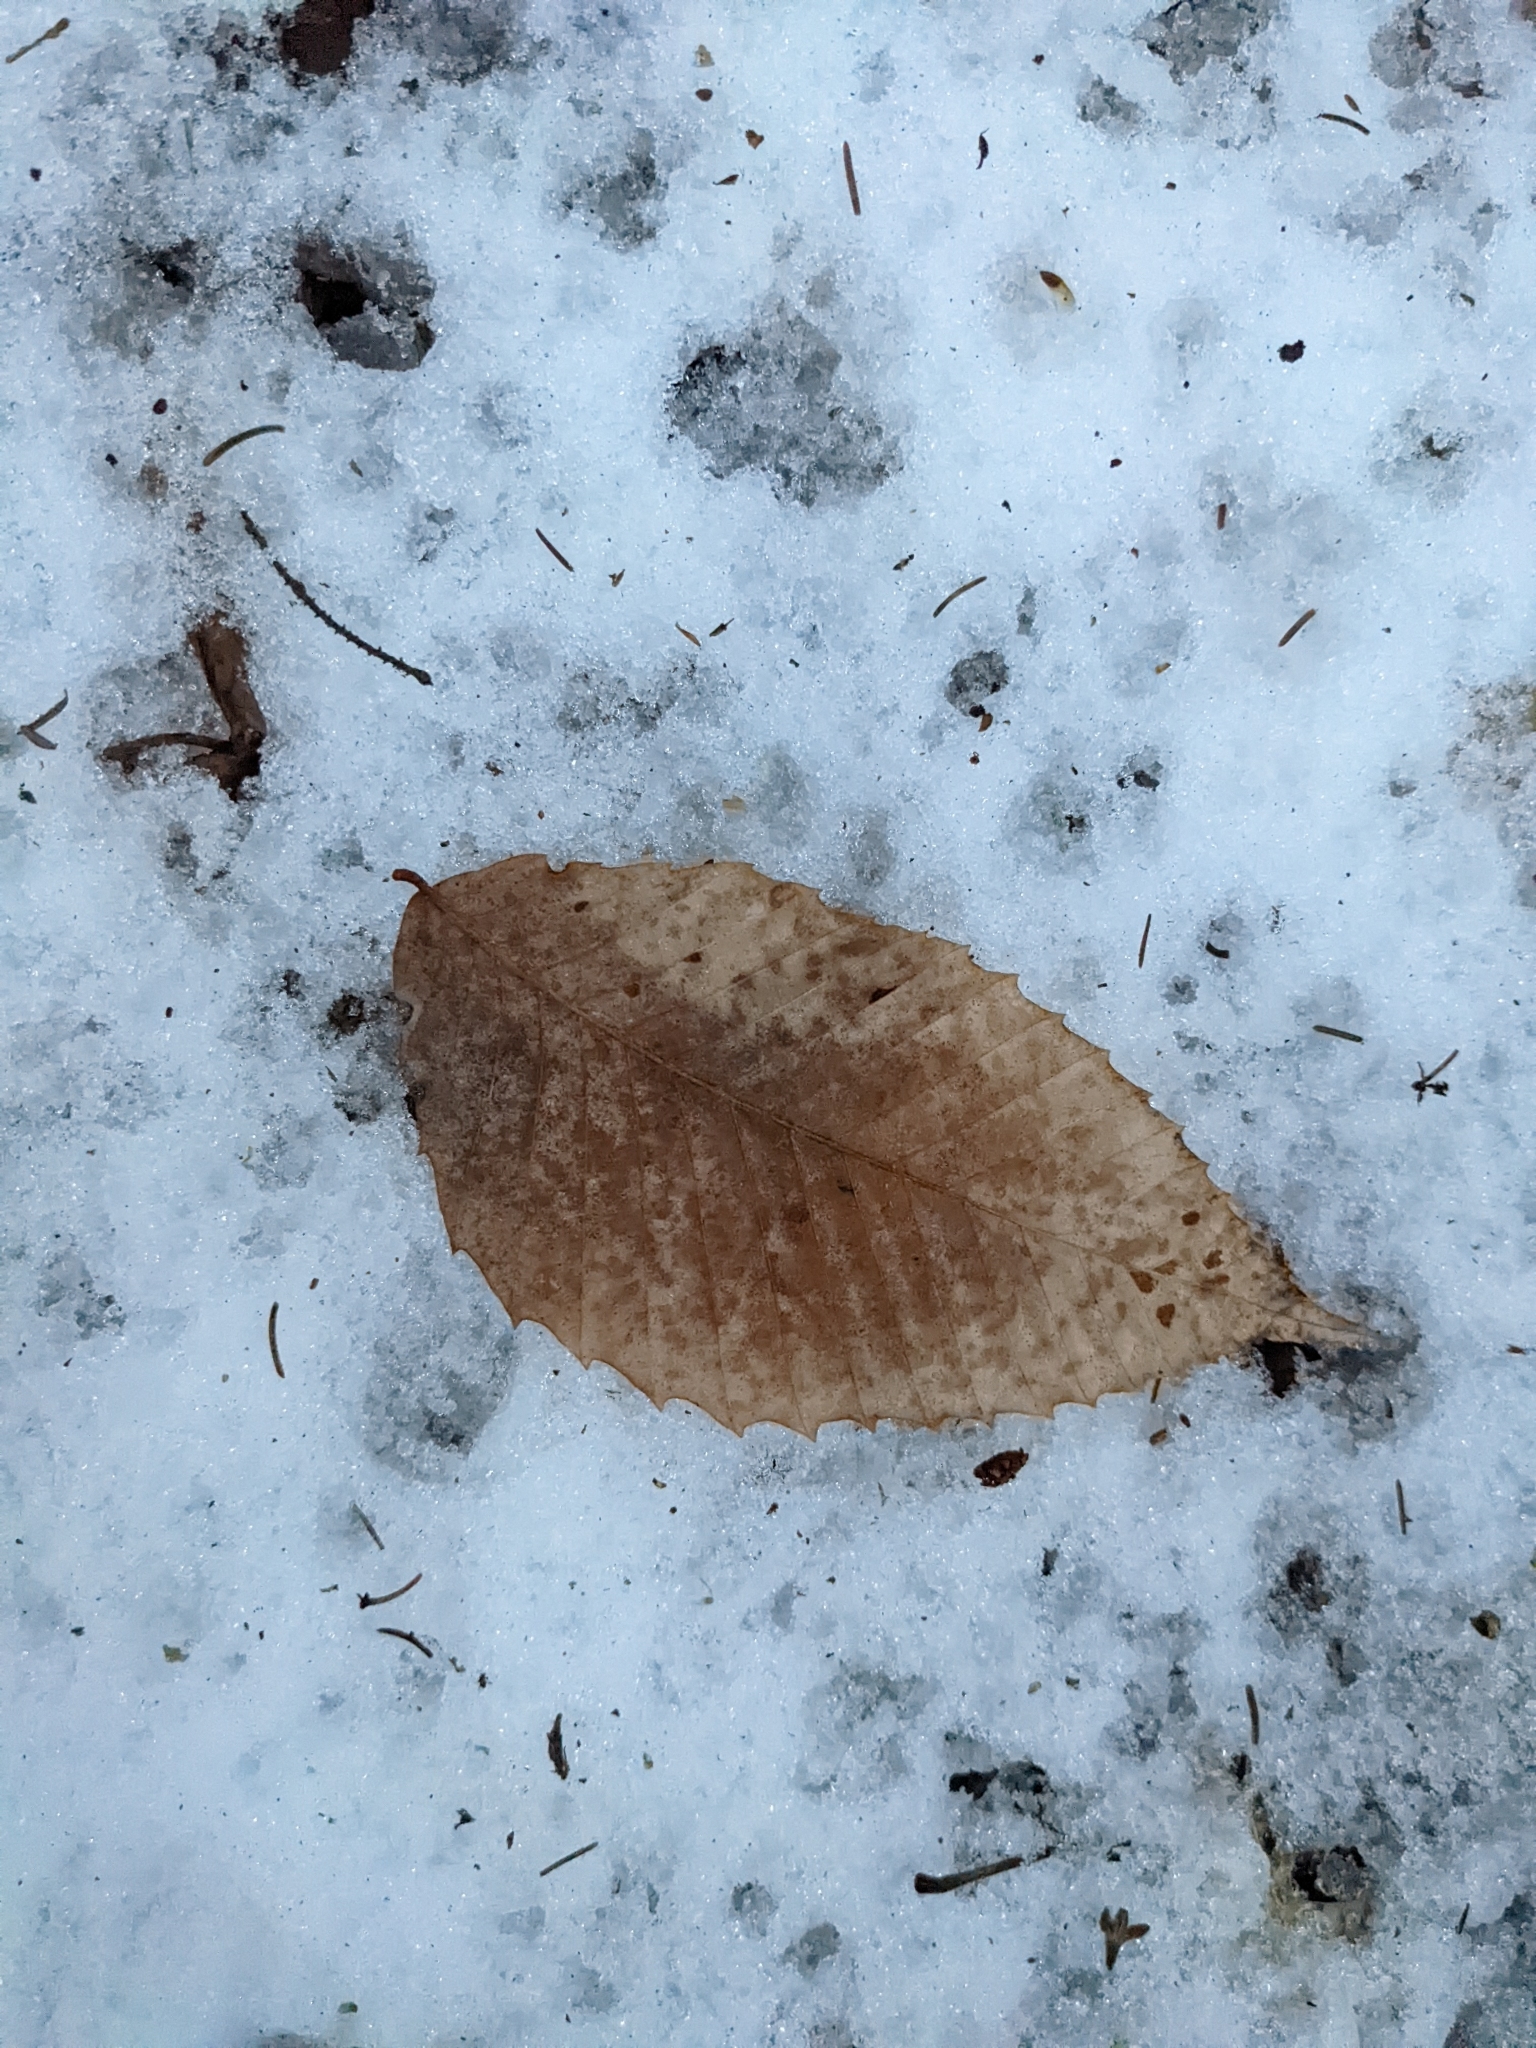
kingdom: Plantae
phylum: Tracheophyta
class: Magnoliopsida
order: Fagales
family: Fagaceae
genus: Fagus
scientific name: Fagus grandifolia
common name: American beech
